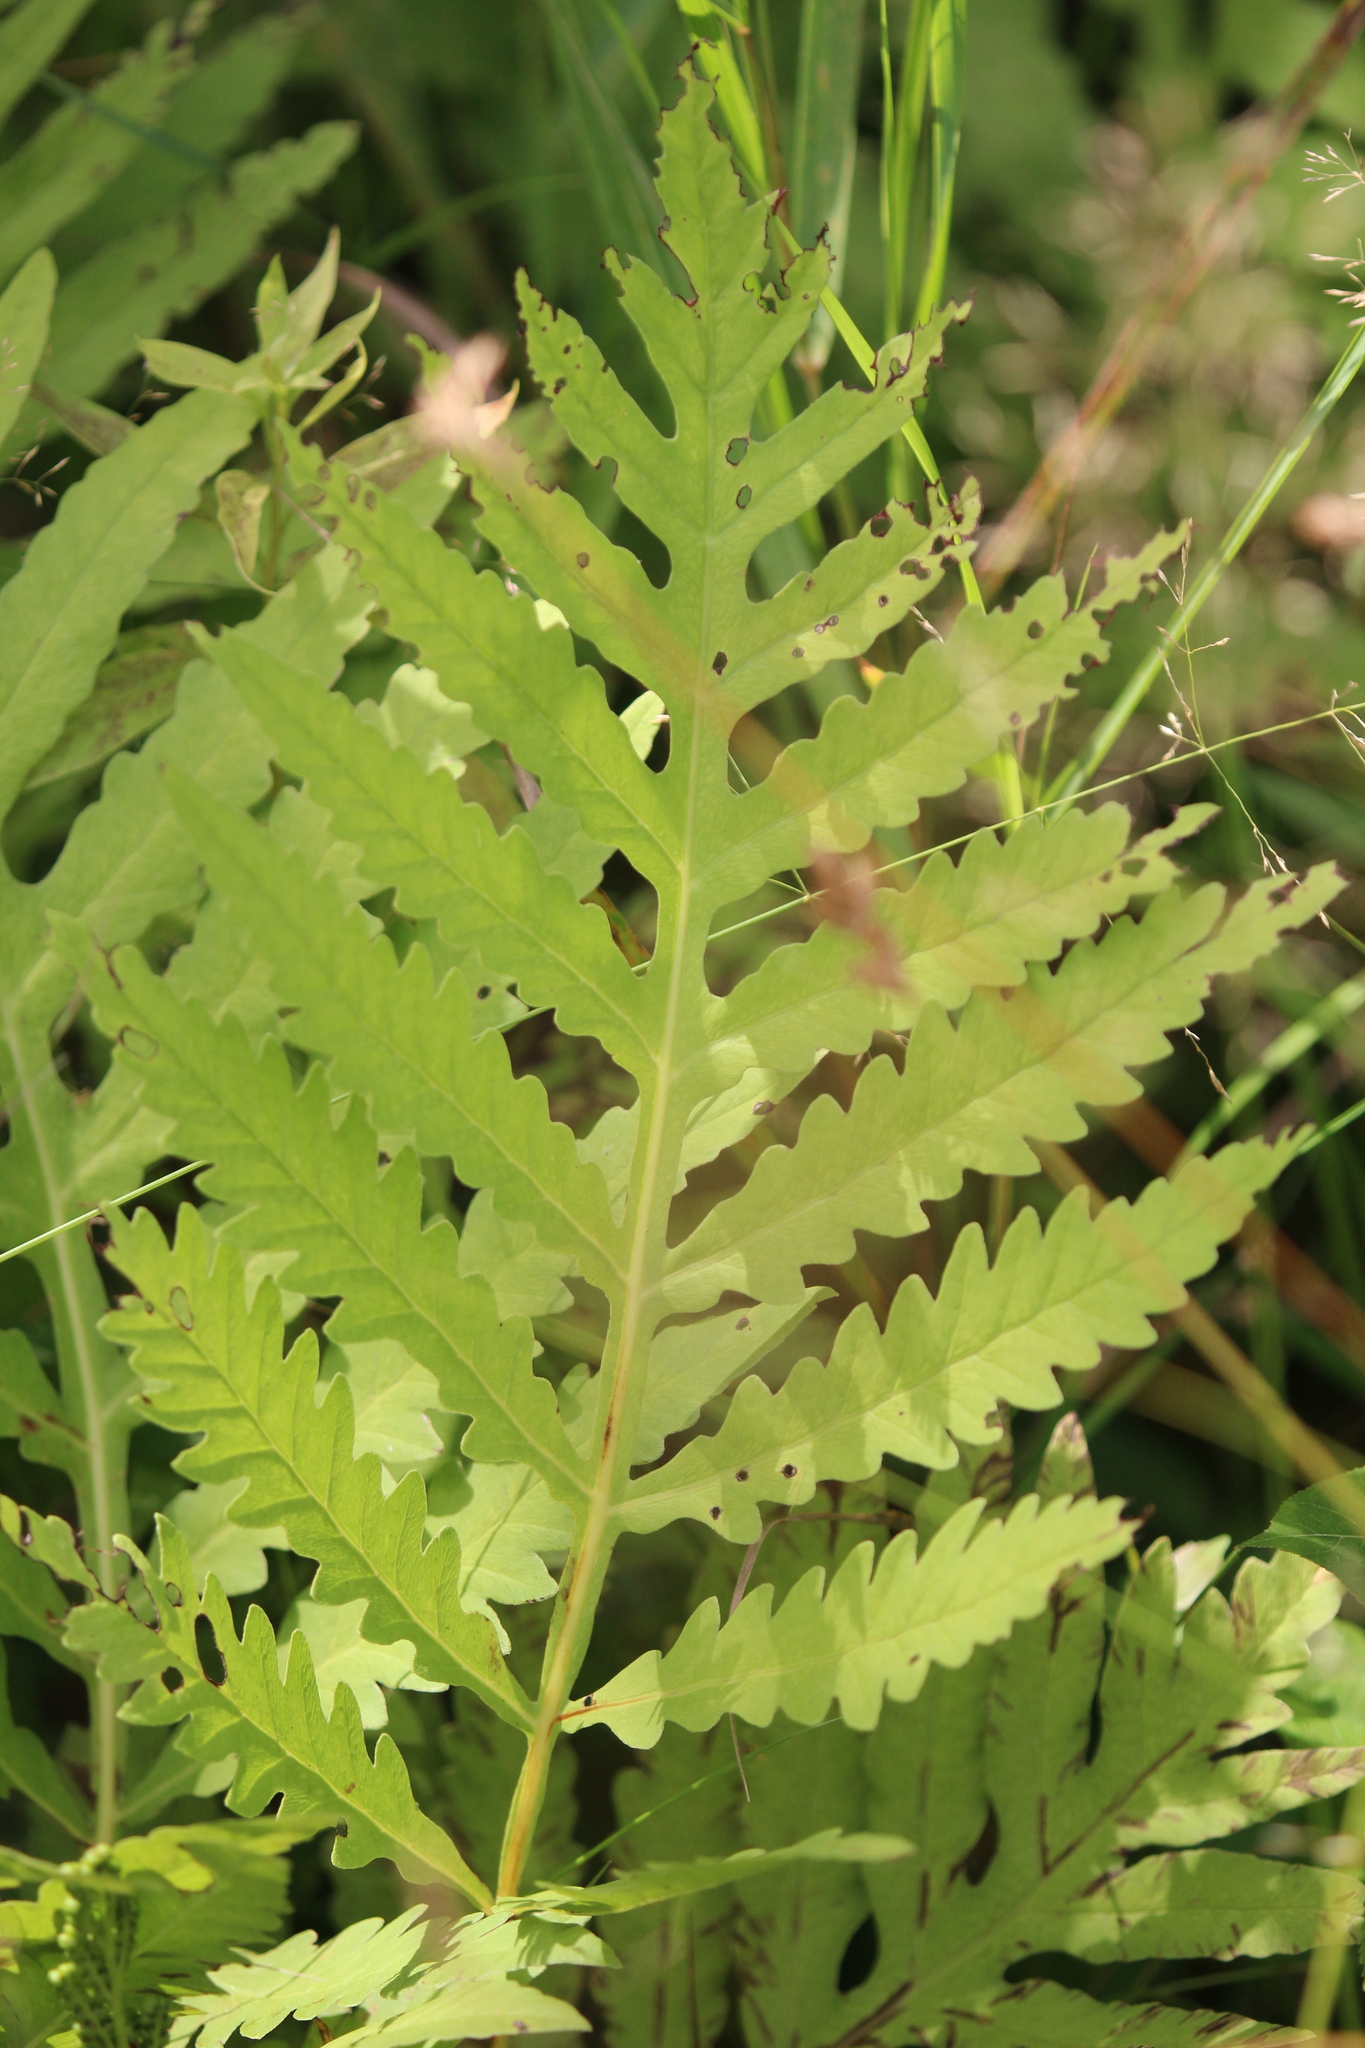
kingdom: Plantae
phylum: Tracheophyta
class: Polypodiopsida
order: Polypodiales
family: Onocleaceae
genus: Onoclea
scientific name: Onoclea sensibilis
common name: Sensitive fern
